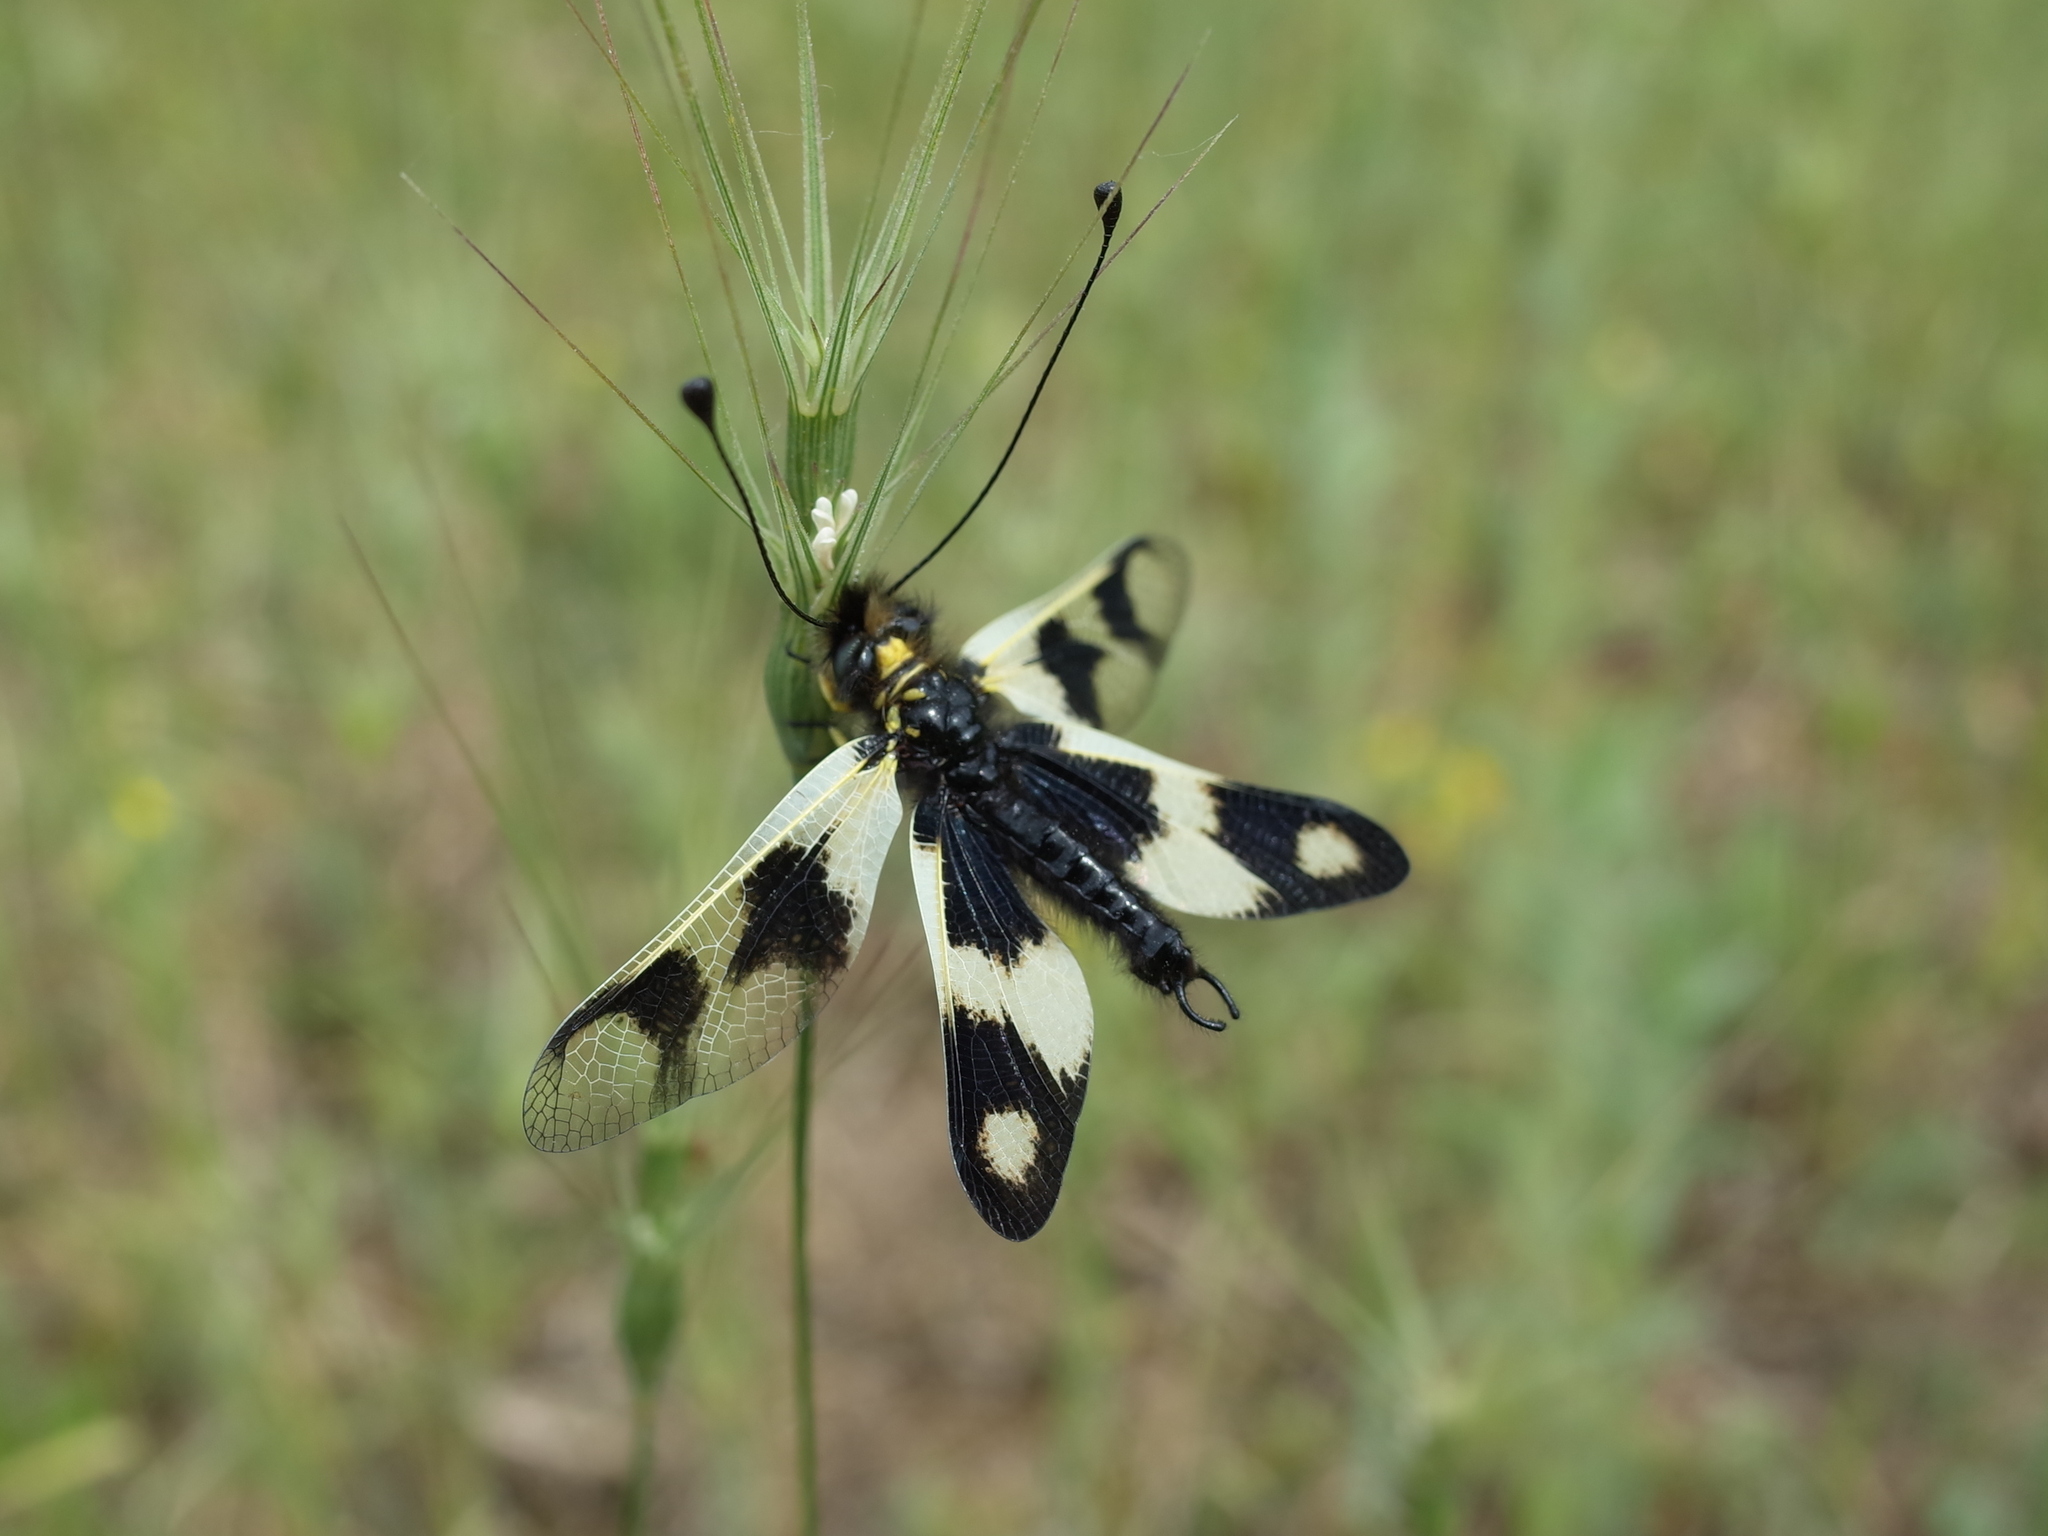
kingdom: Animalia
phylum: Arthropoda
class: Insecta
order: Neuroptera
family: Ascalaphidae
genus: Libelloides
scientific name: Libelloides macaronius
